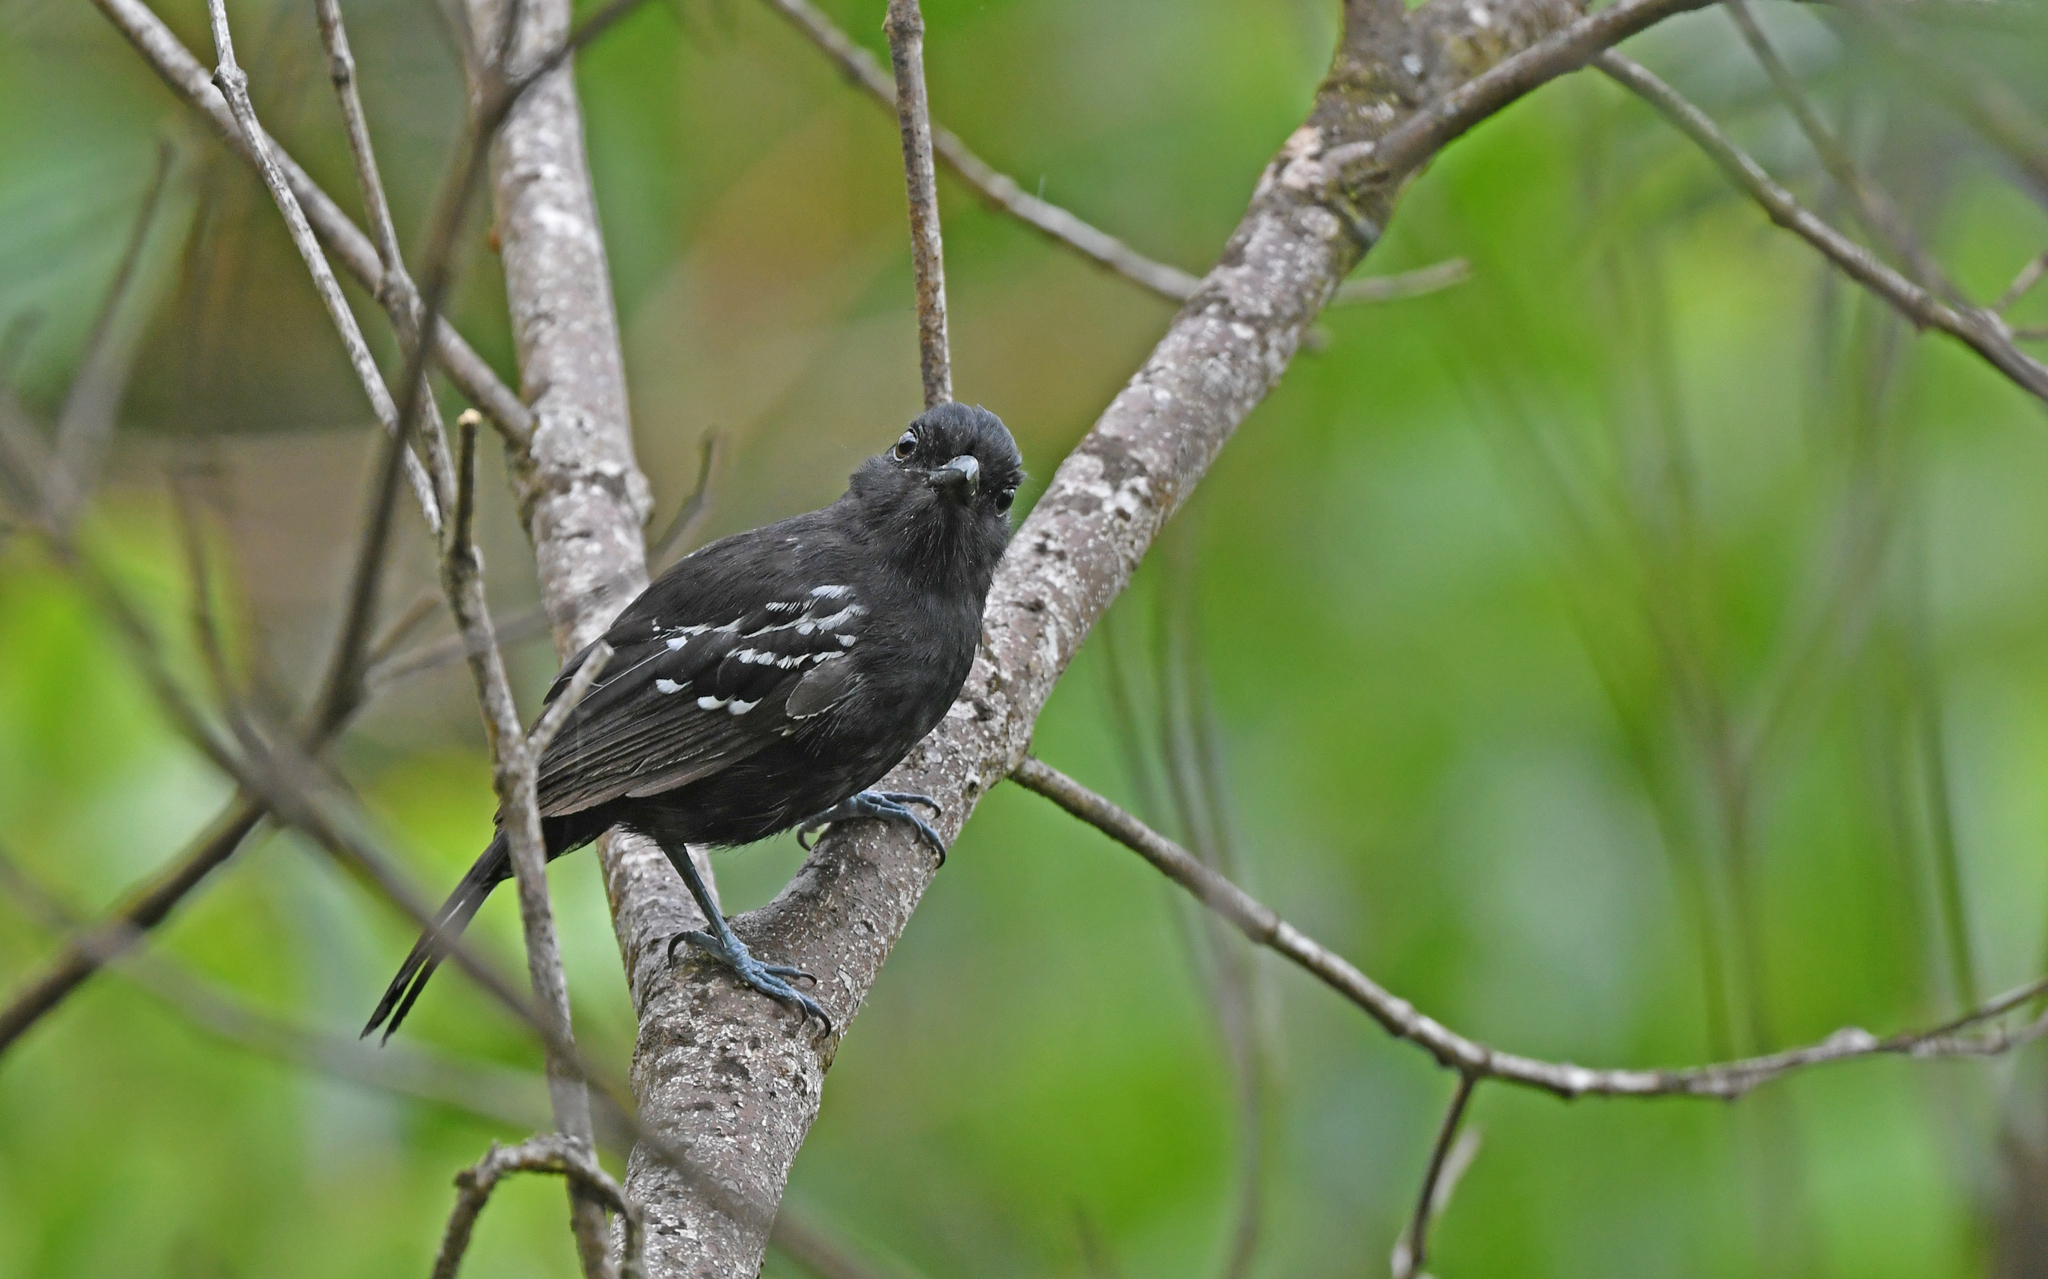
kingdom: Animalia
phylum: Chordata
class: Aves
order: Passeriformes
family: Thamnophilidae
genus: Thamnophilus
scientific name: Thamnophilus caerulescens
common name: Variable antshrike
